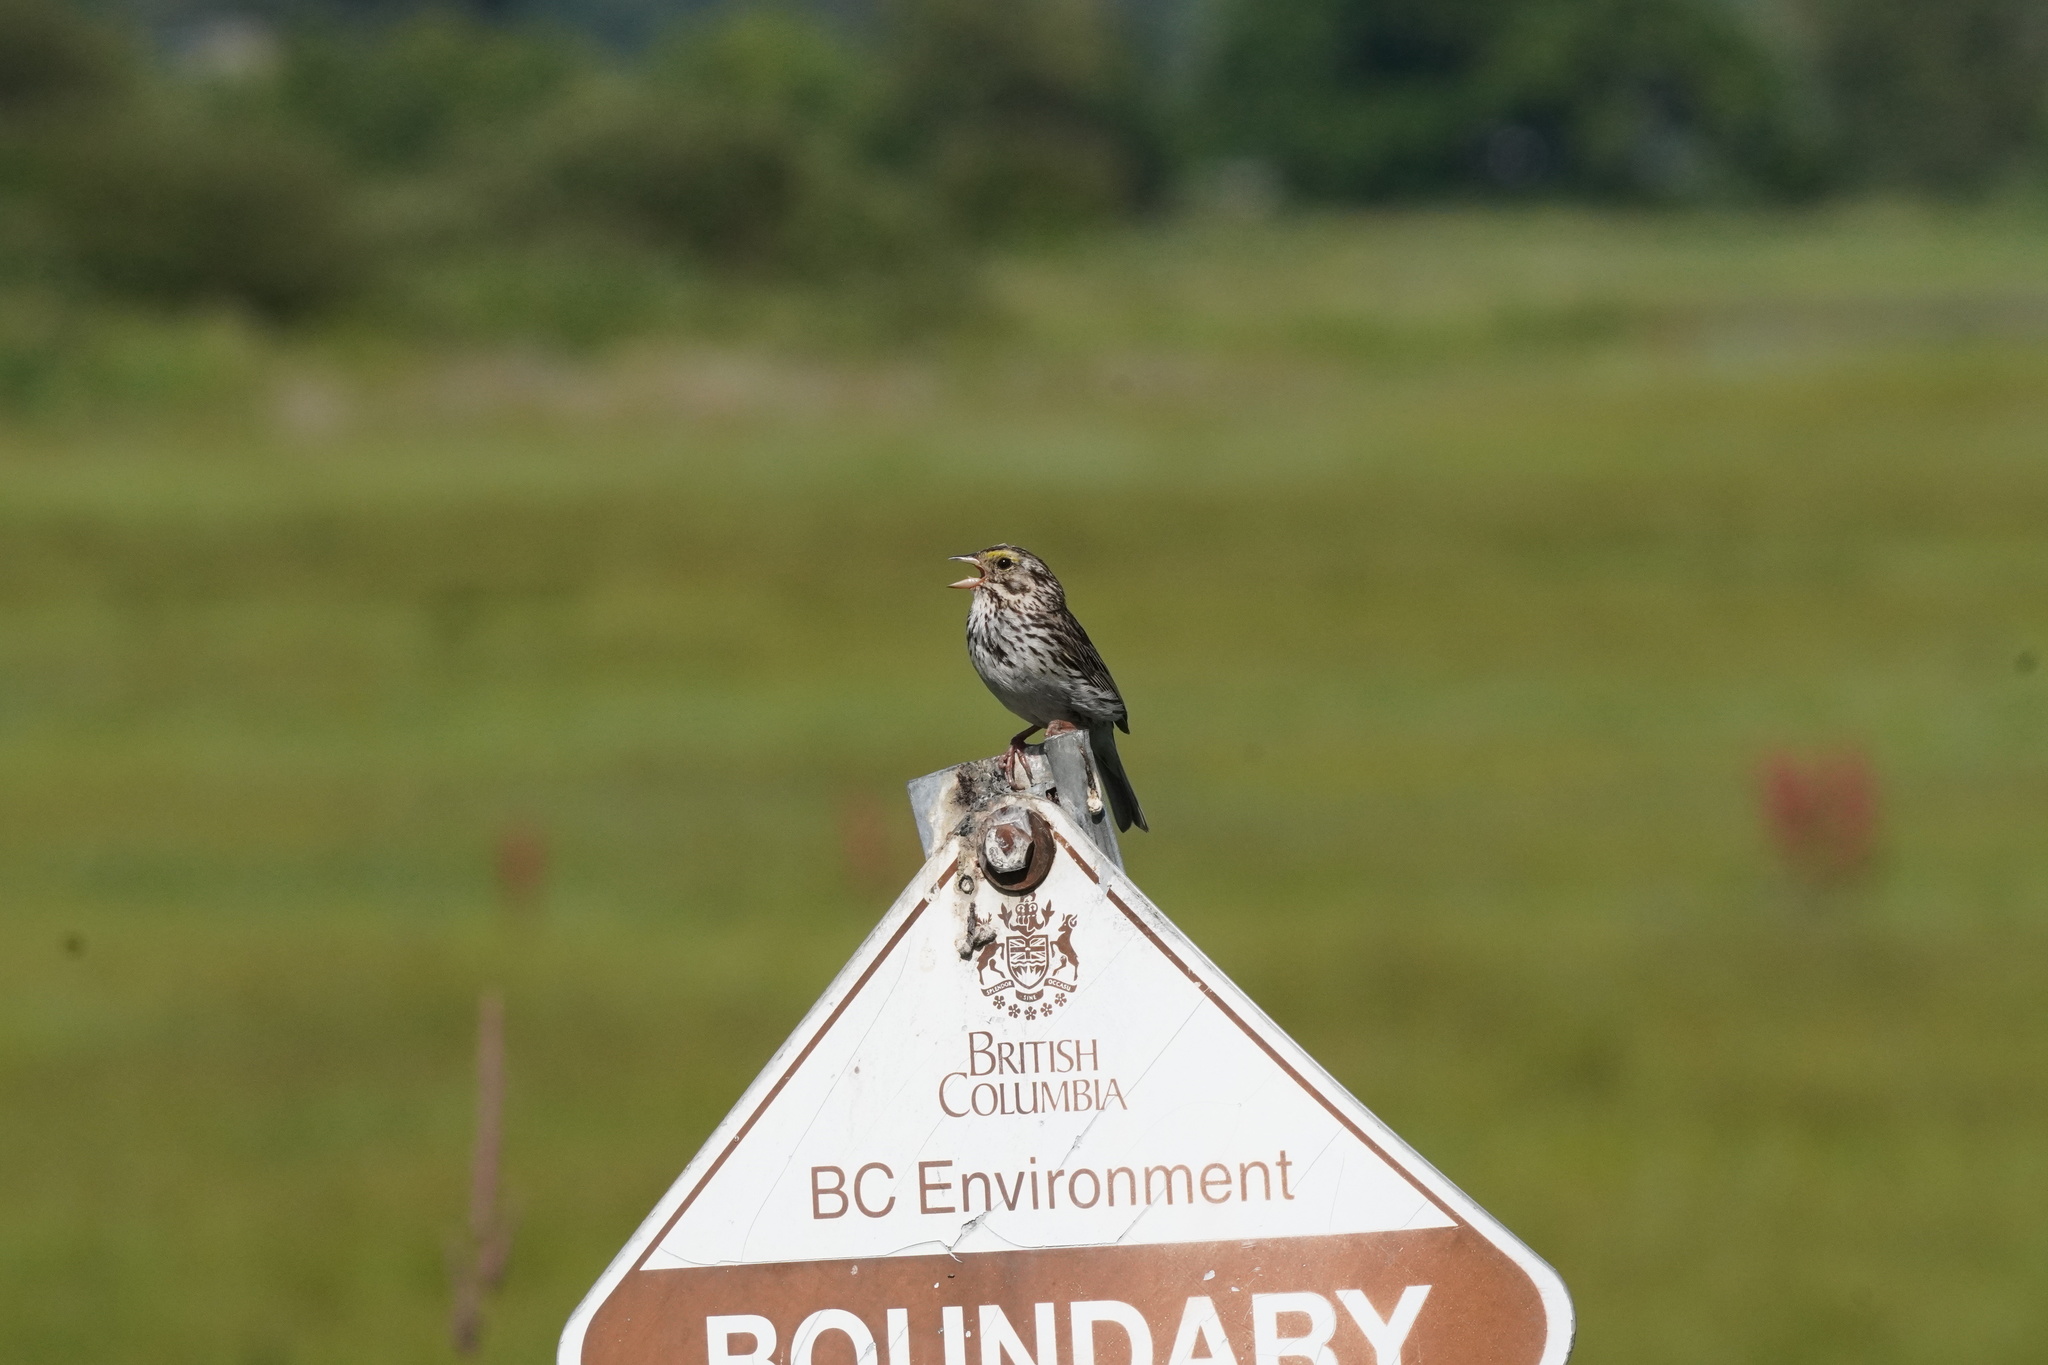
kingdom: Animalia
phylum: Chordata
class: Aves
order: Passeriformes
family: Passerellidae
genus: Passerculus
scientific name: Passerculus sandwichensis
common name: Savannah sparrow
